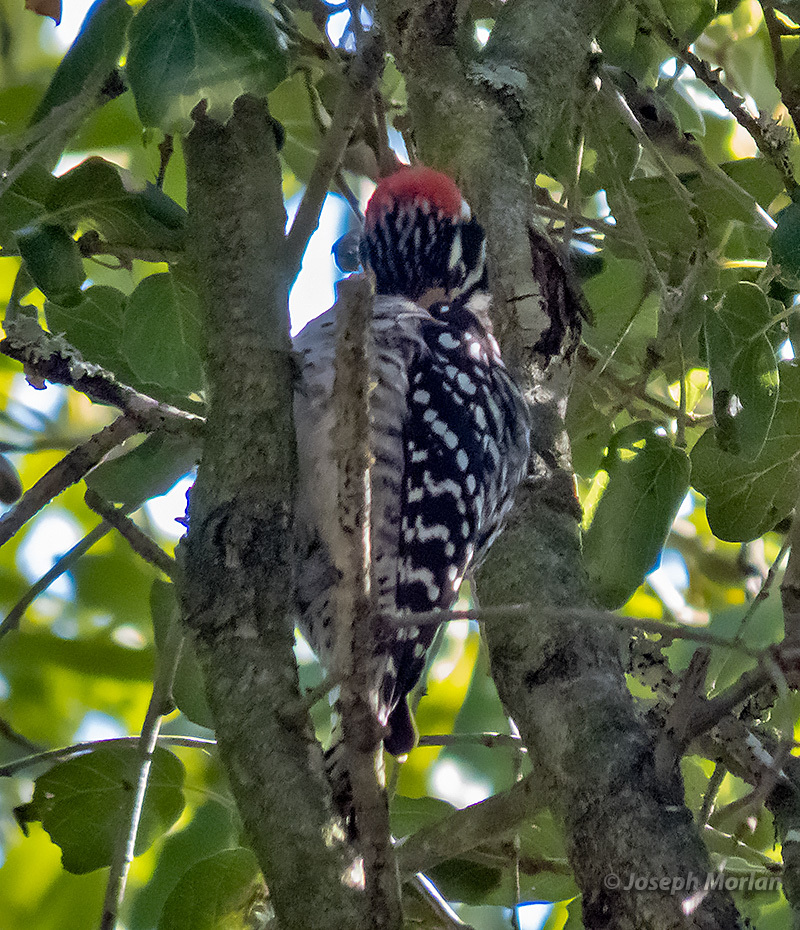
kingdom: Animalia
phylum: Chordata
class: Aves
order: Piciformes
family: Picidae
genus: Dryobates
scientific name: Dryobates nuttallii
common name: Nuttall's woodpecker
